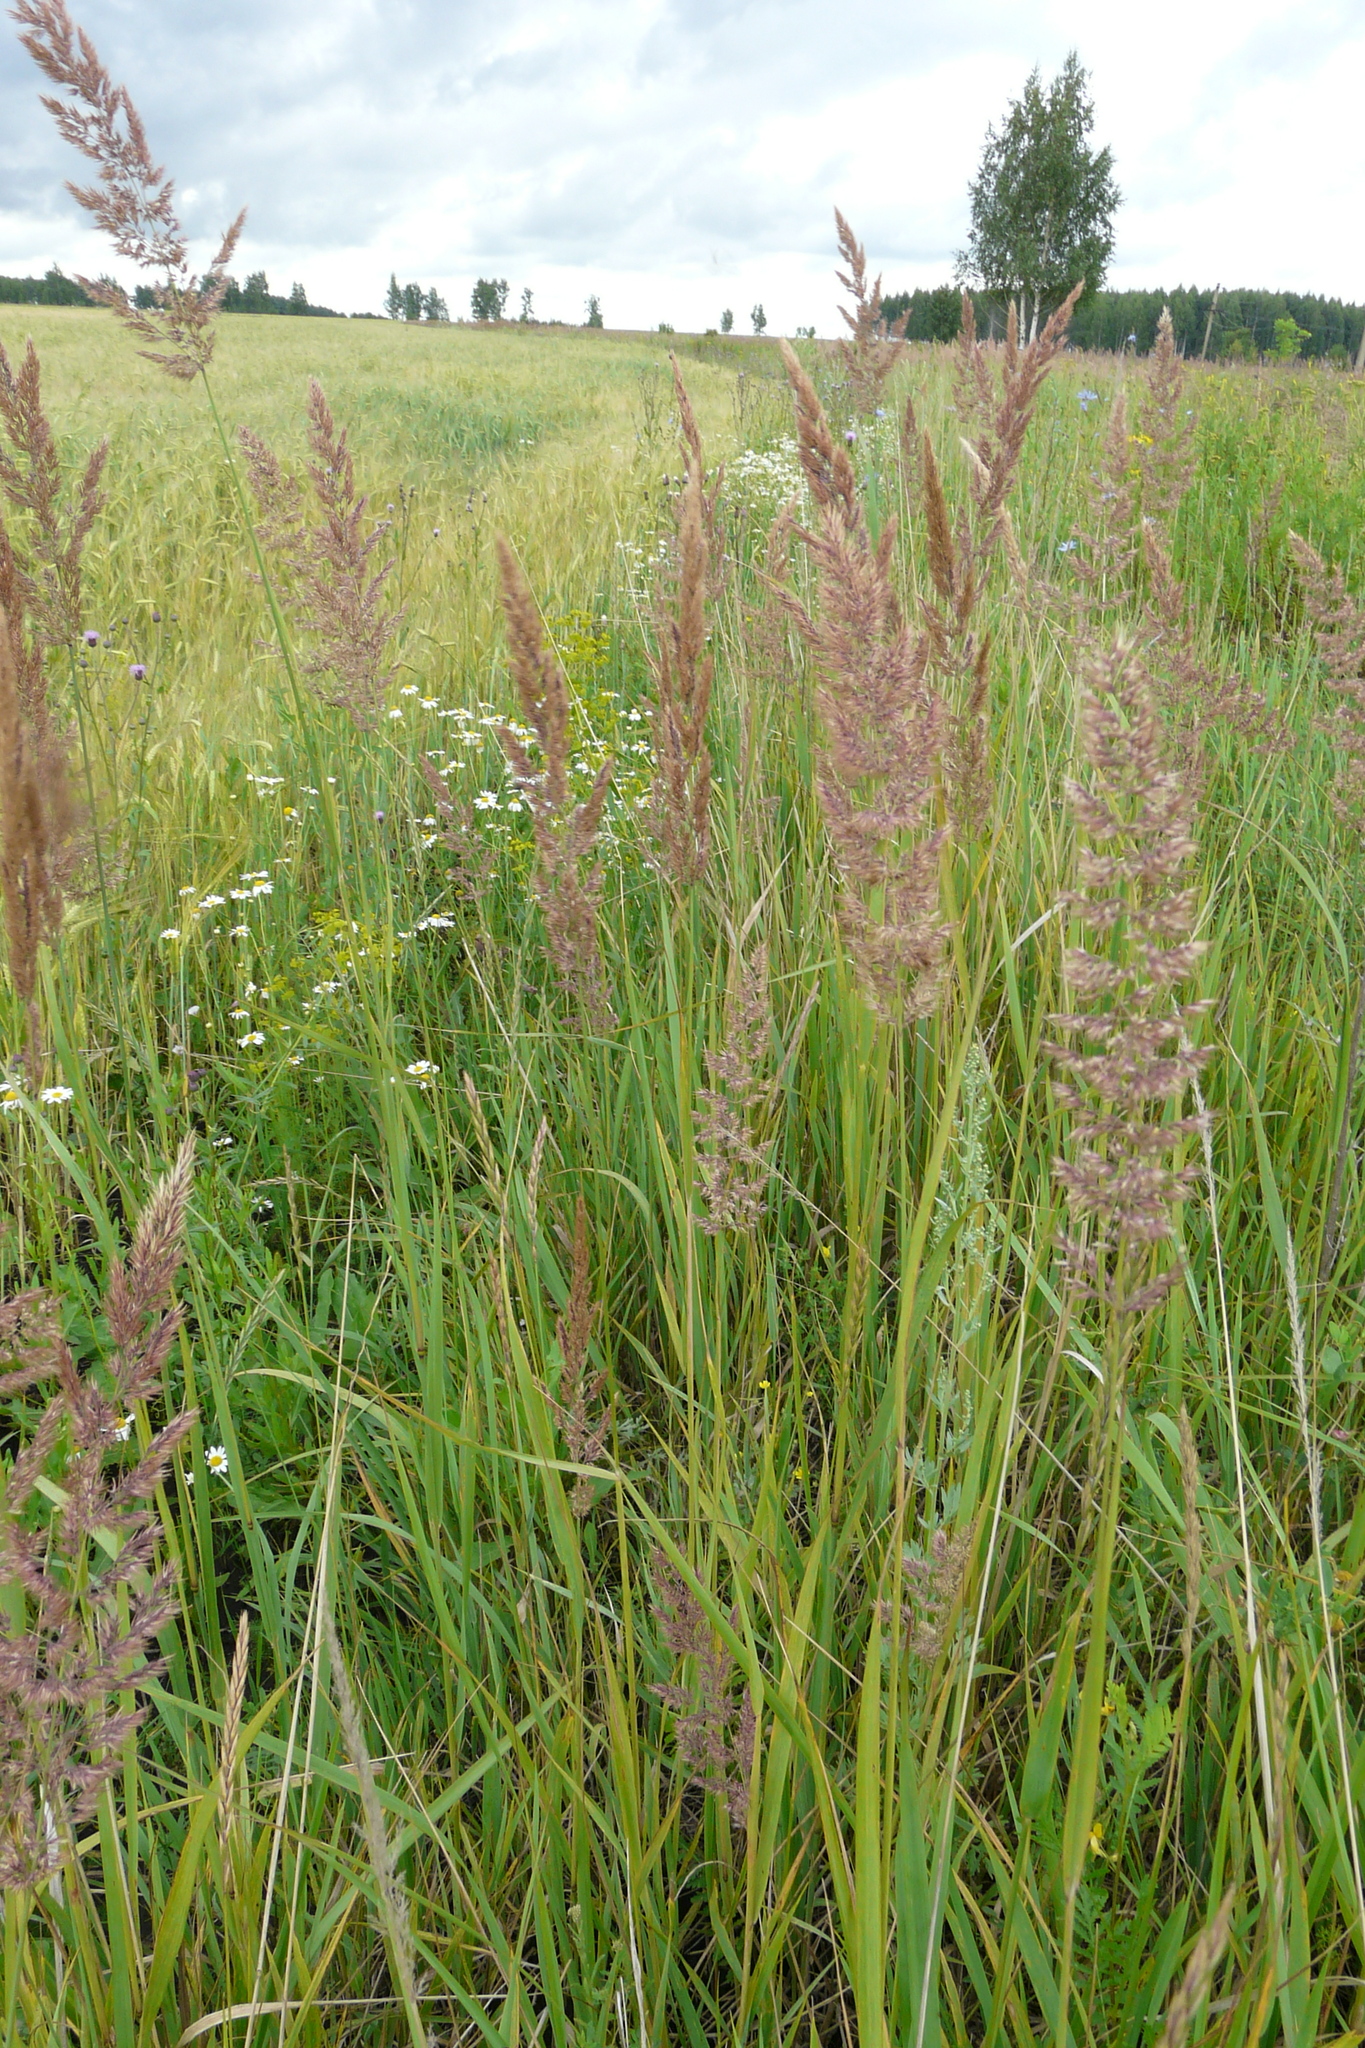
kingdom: Plantae
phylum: Tracheophyta
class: Liliopsida
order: Poales
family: Poaceae
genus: Calamagrostis
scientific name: Calamagrostis epigejos
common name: Wood small-reed
